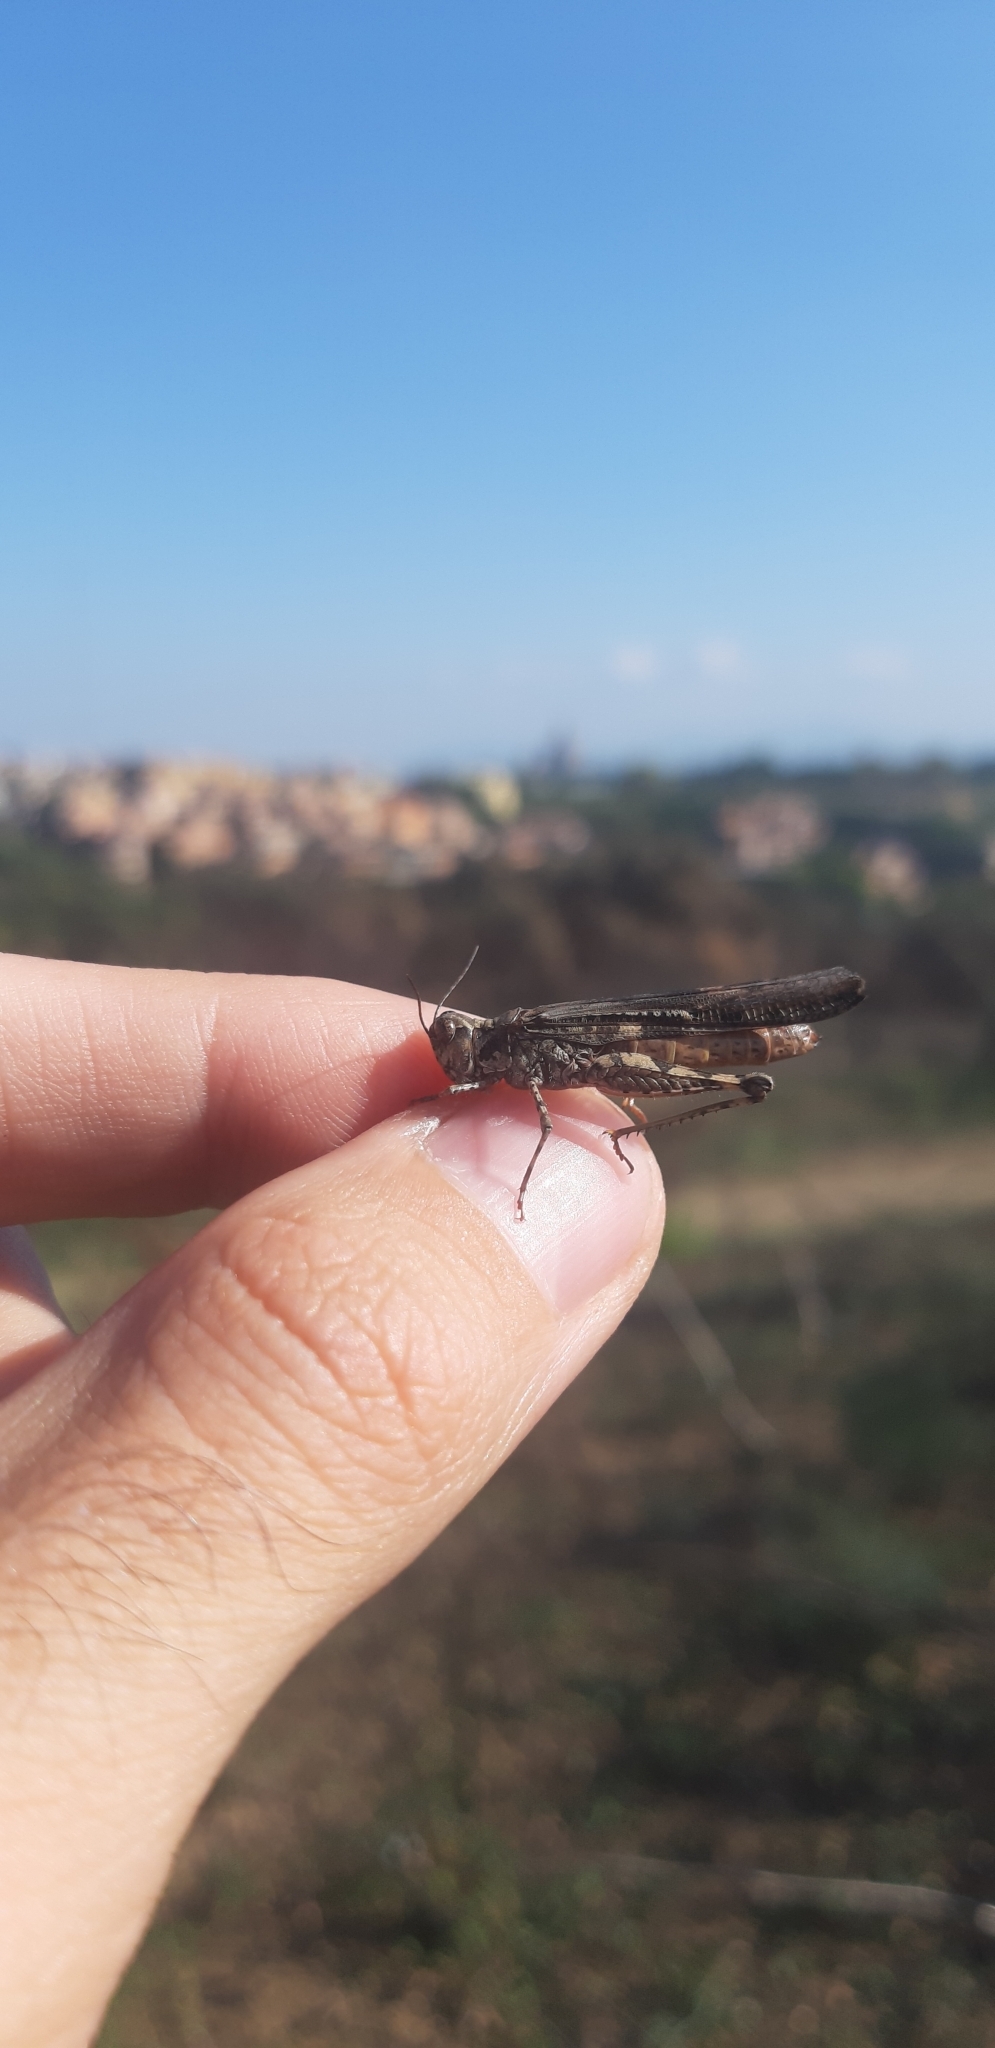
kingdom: Animalia
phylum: Arthropoda
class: Insecta
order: Orthoptera
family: Acrididae
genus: Acrotylus
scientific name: Acrotylus patruelis
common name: Slender burrowing grasshopper
